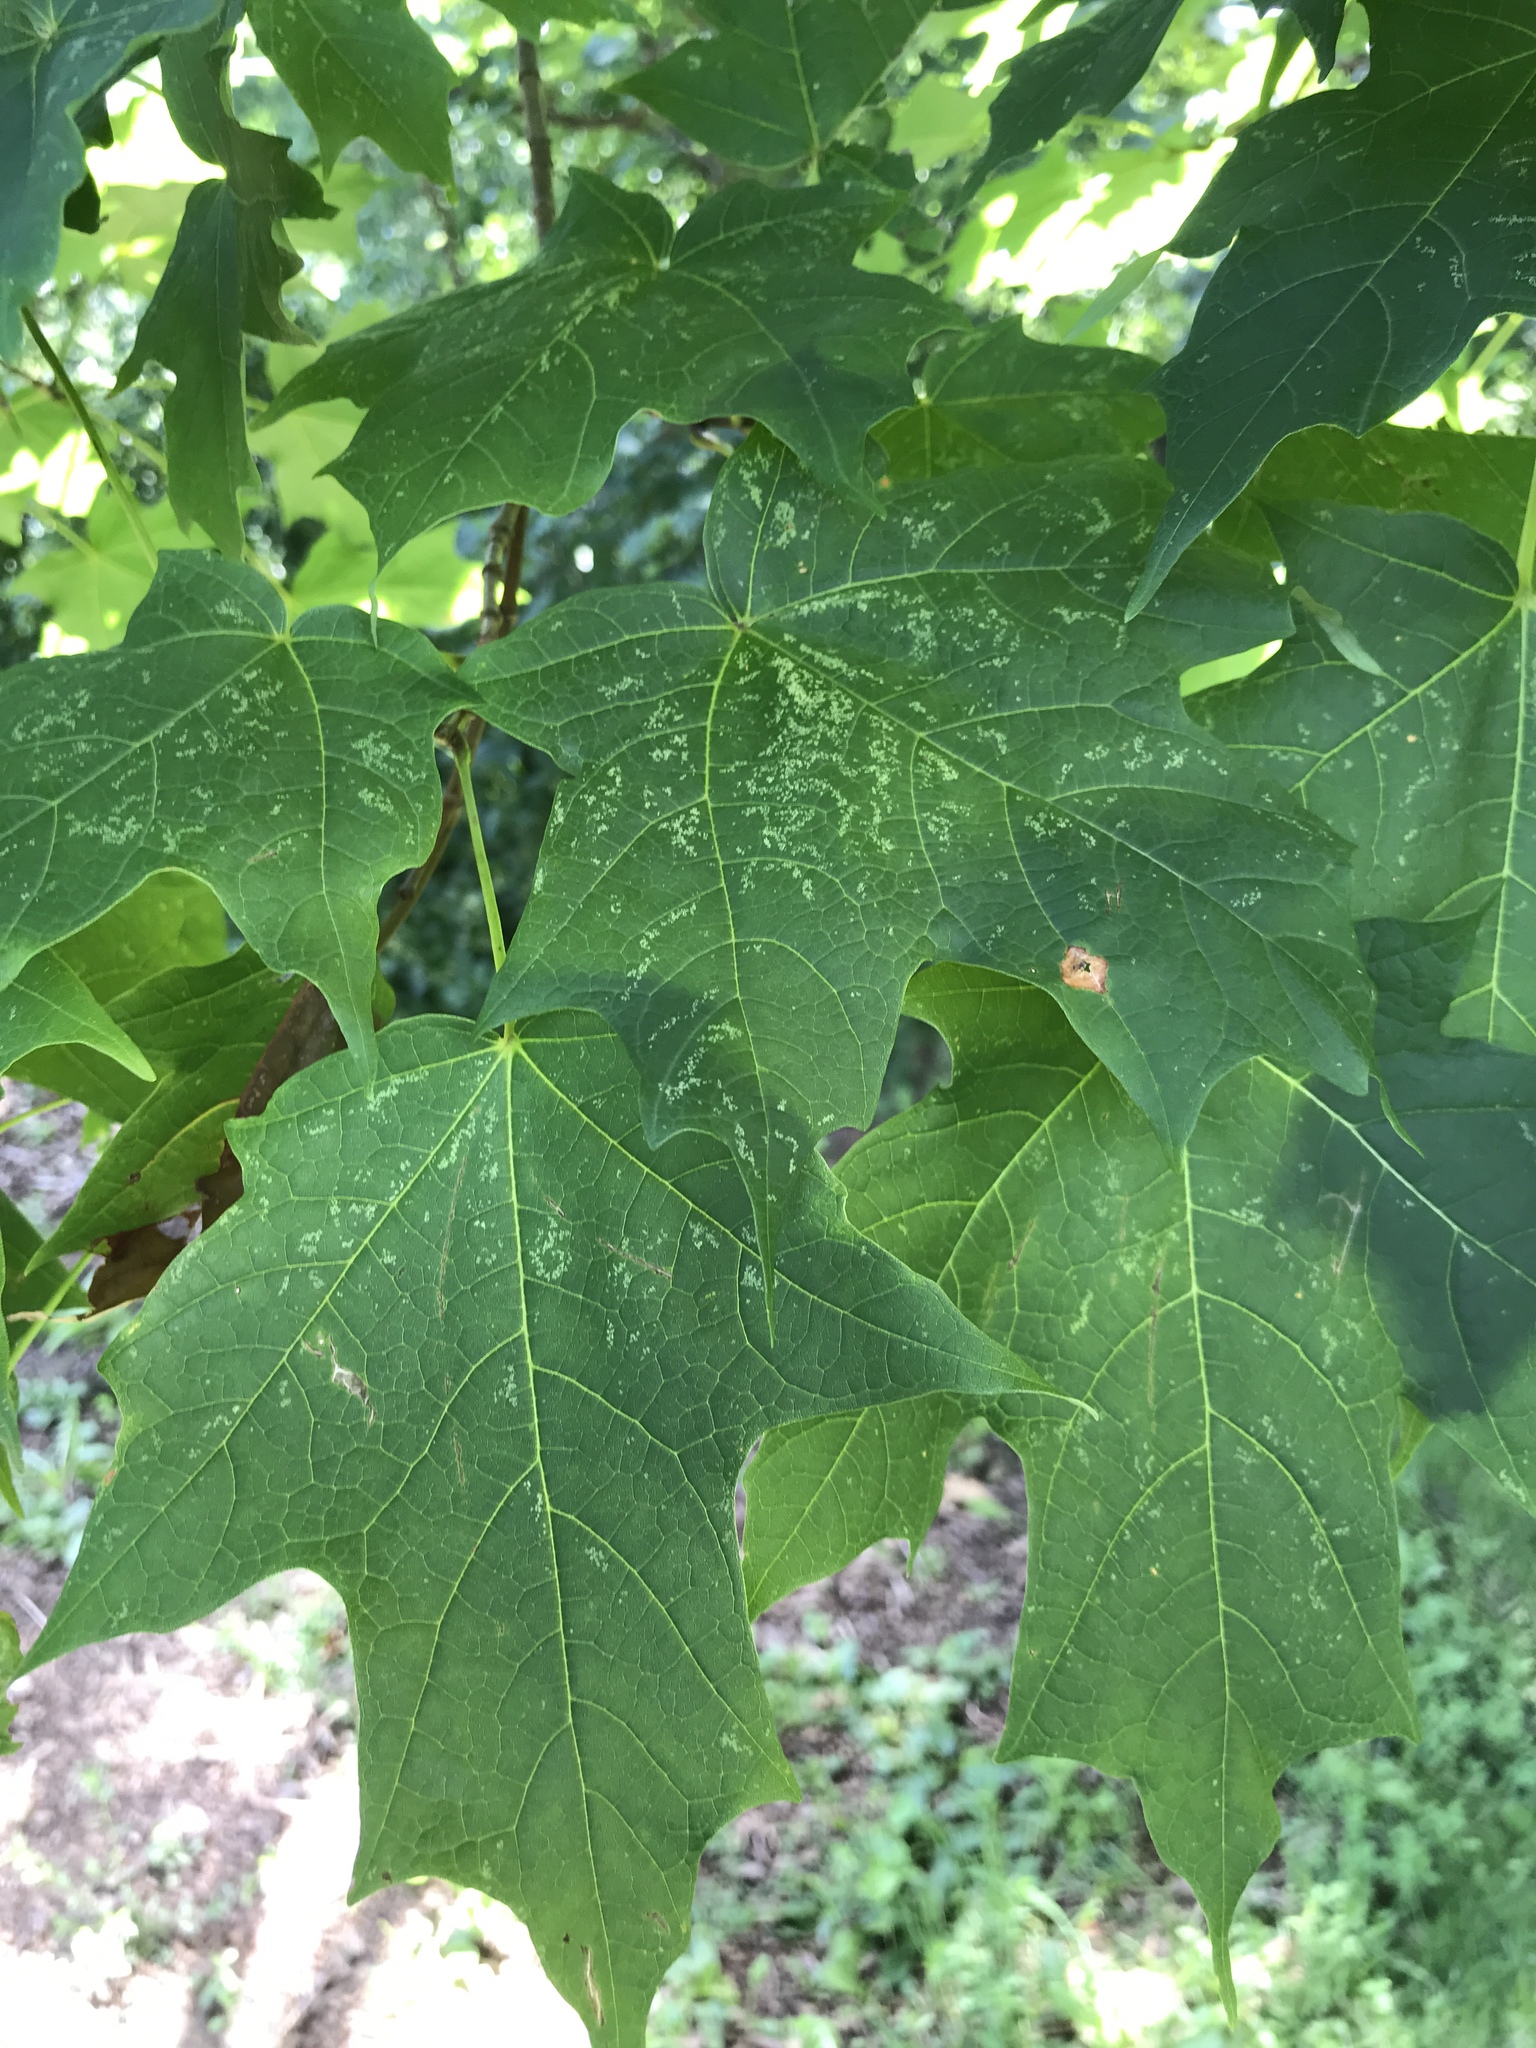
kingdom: Plantae
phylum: Tracheophyta
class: Magnoliopsida
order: Sapindales
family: Sapindaceae
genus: Acer
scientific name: Acer saccharum
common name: Sugar maple
